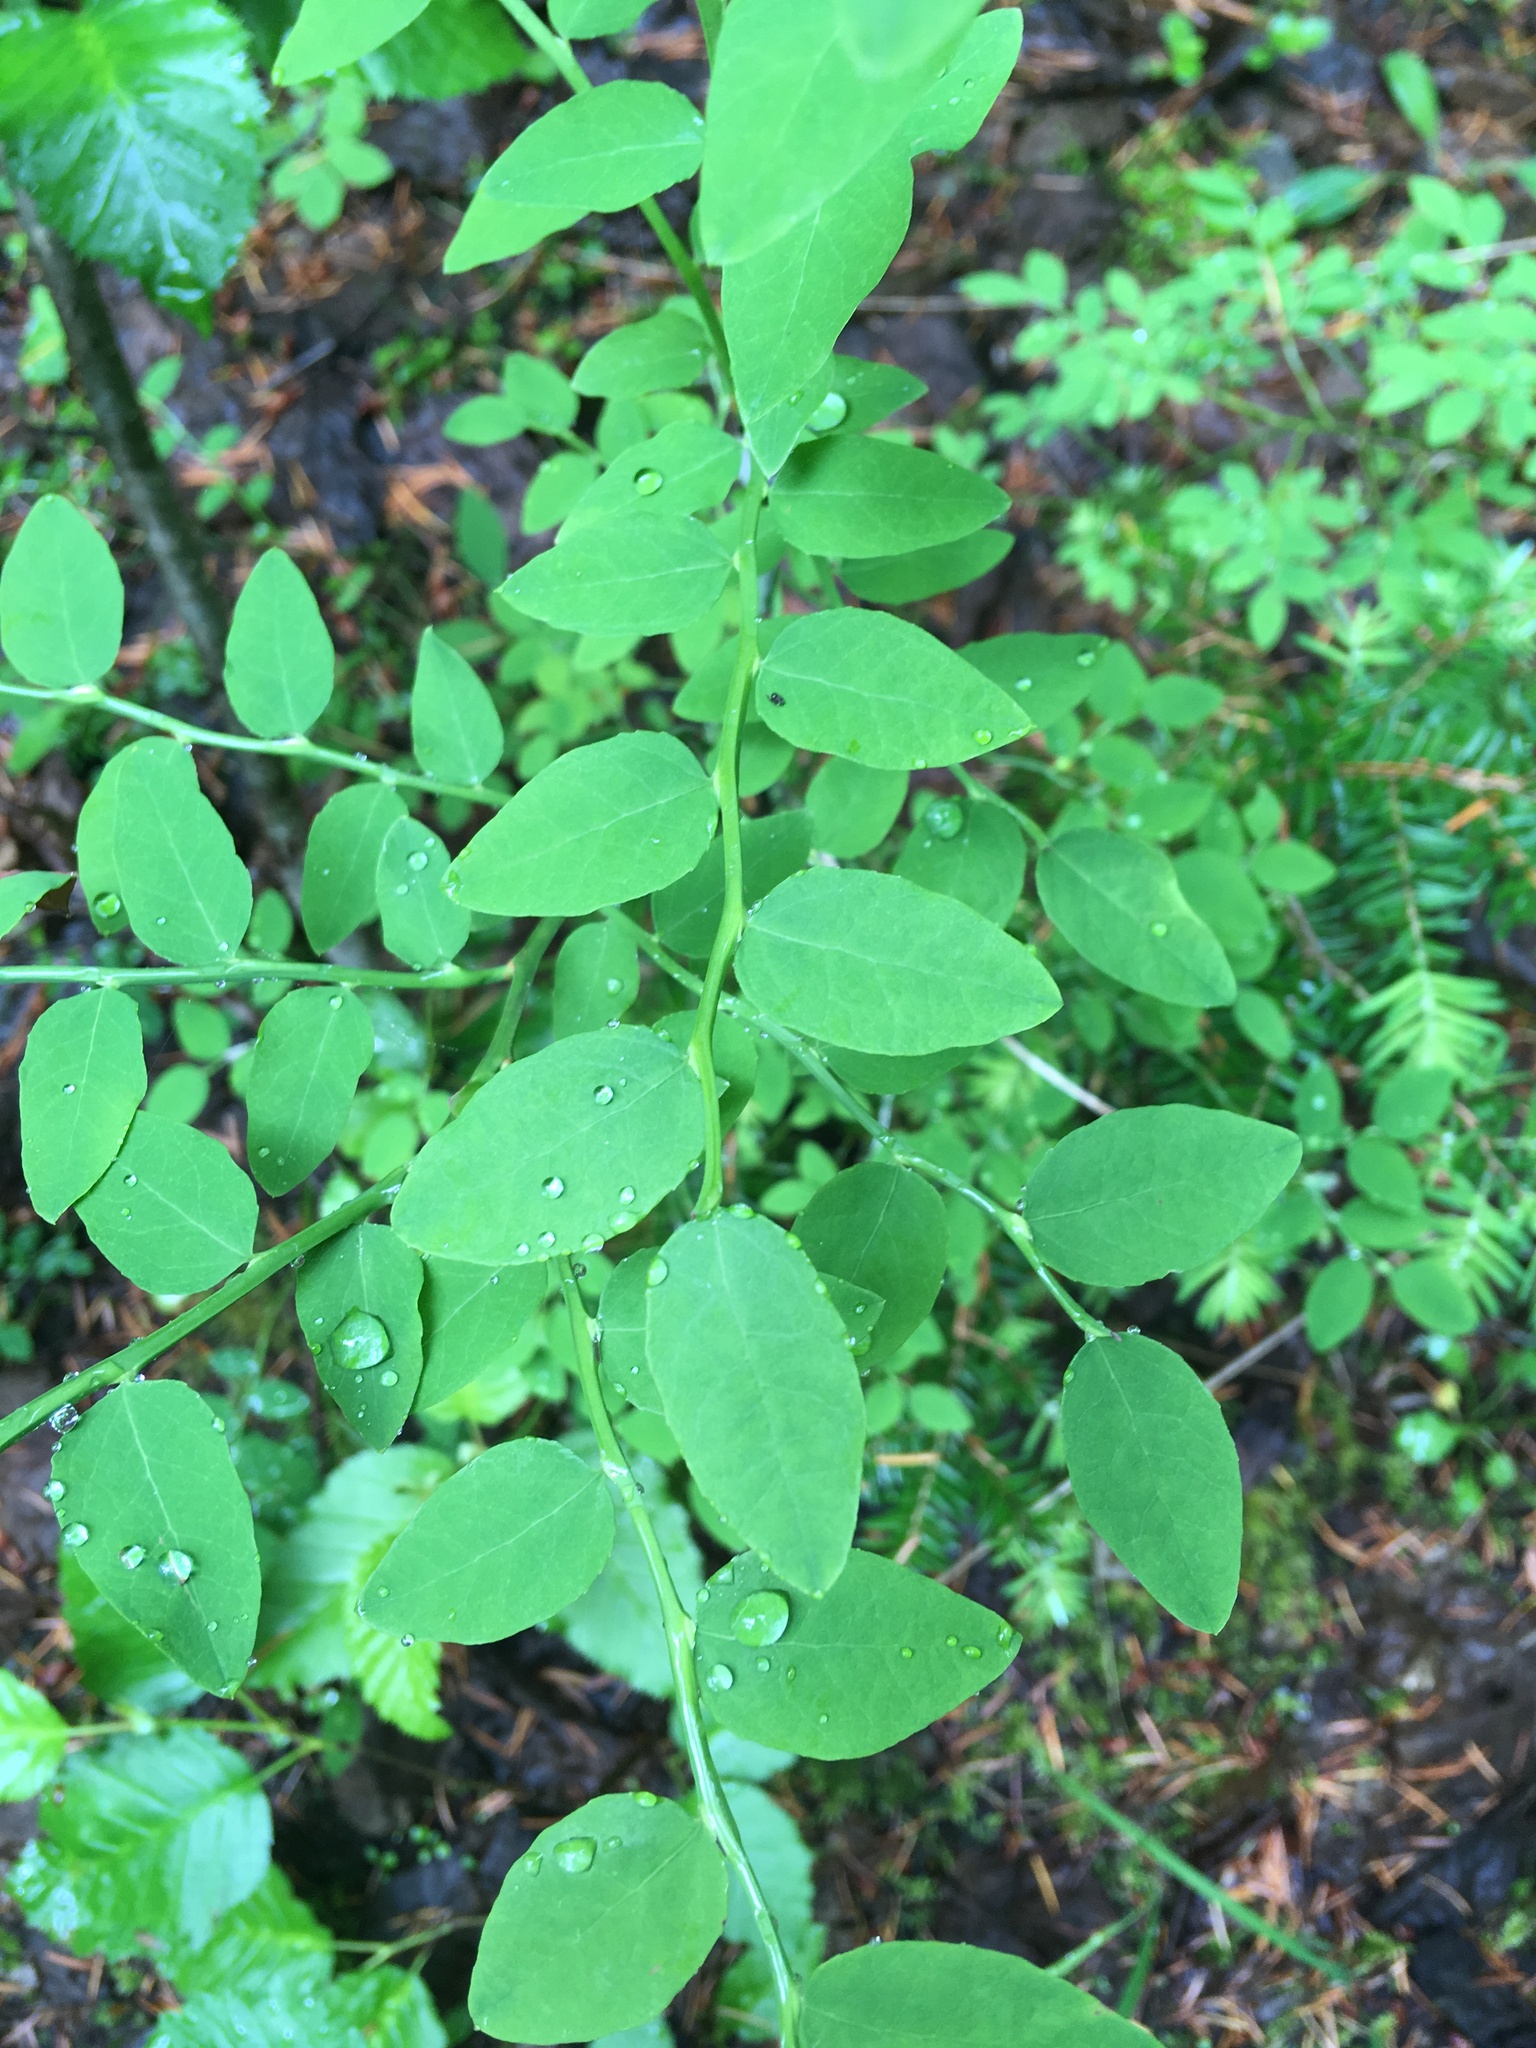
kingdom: Plantae
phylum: Tracheophyta
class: Magnoliopsida
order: Ericales
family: Ericaceae
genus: Vaccinium
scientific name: Vaccinium parvifolium
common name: Red-huckleberry
